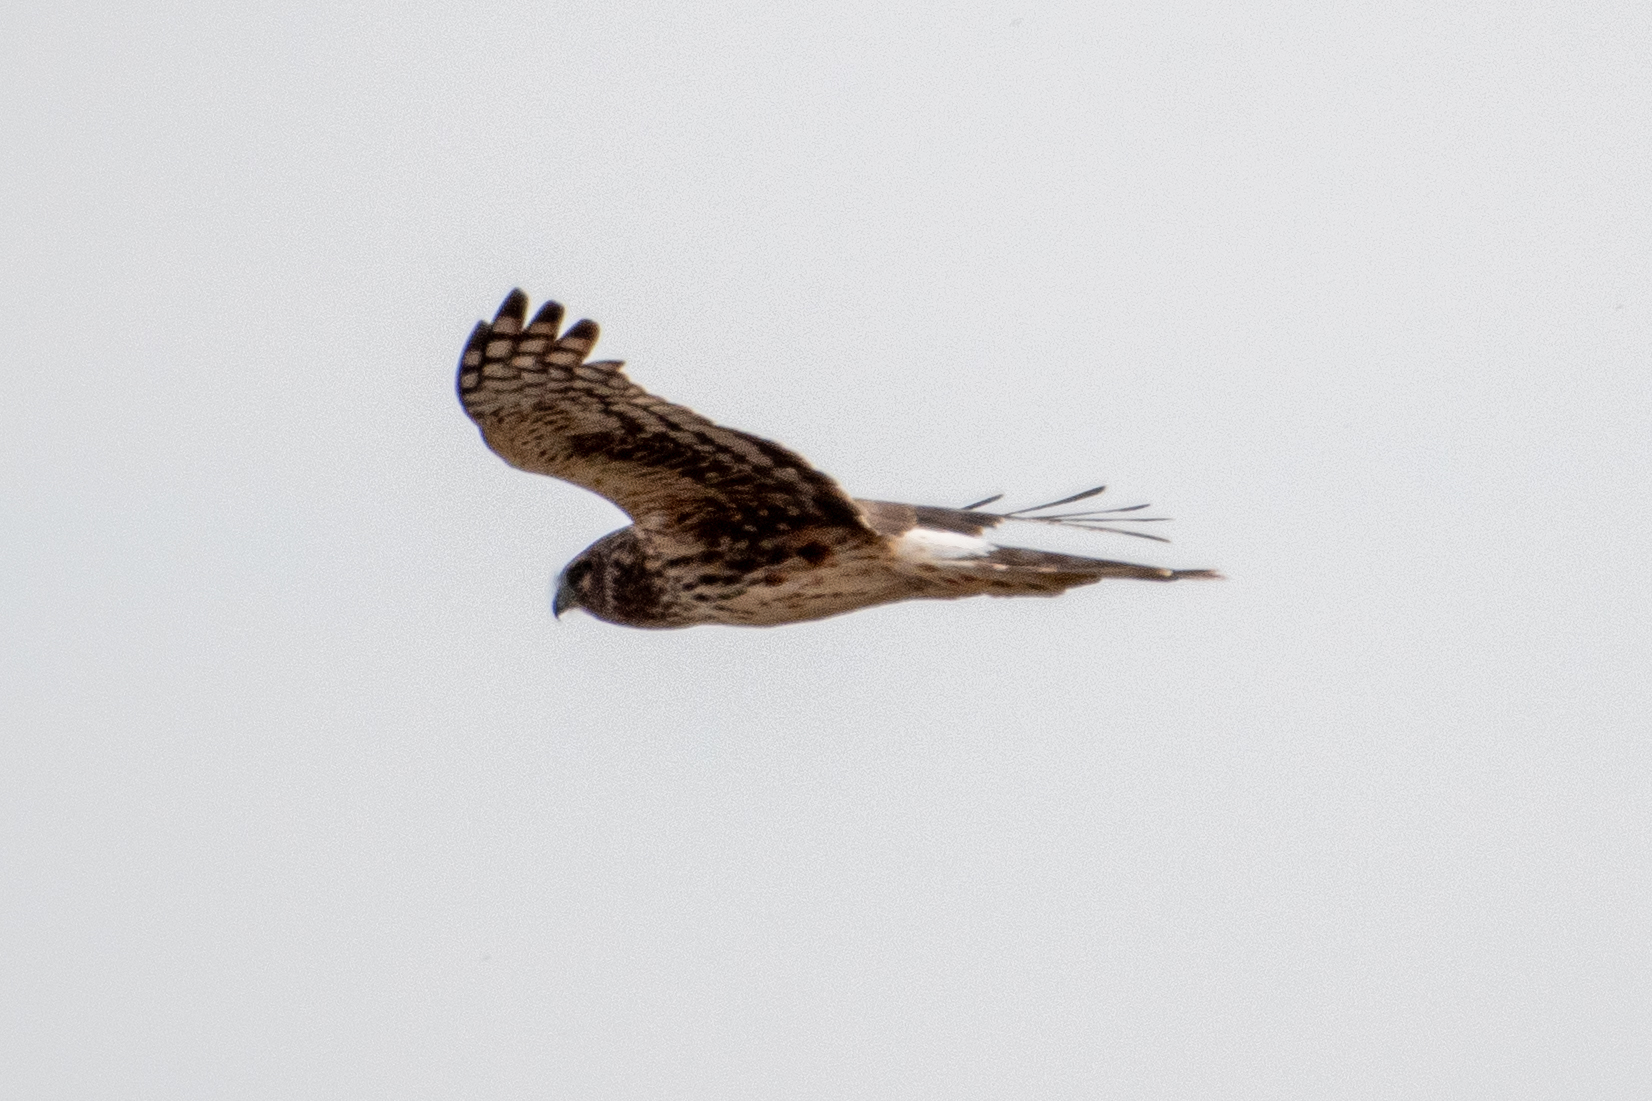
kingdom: Animalia
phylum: Chordata
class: Aves
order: Accipitriformes
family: Accipitridae
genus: Circus
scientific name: Circus cyaneus
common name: Hen harrier
